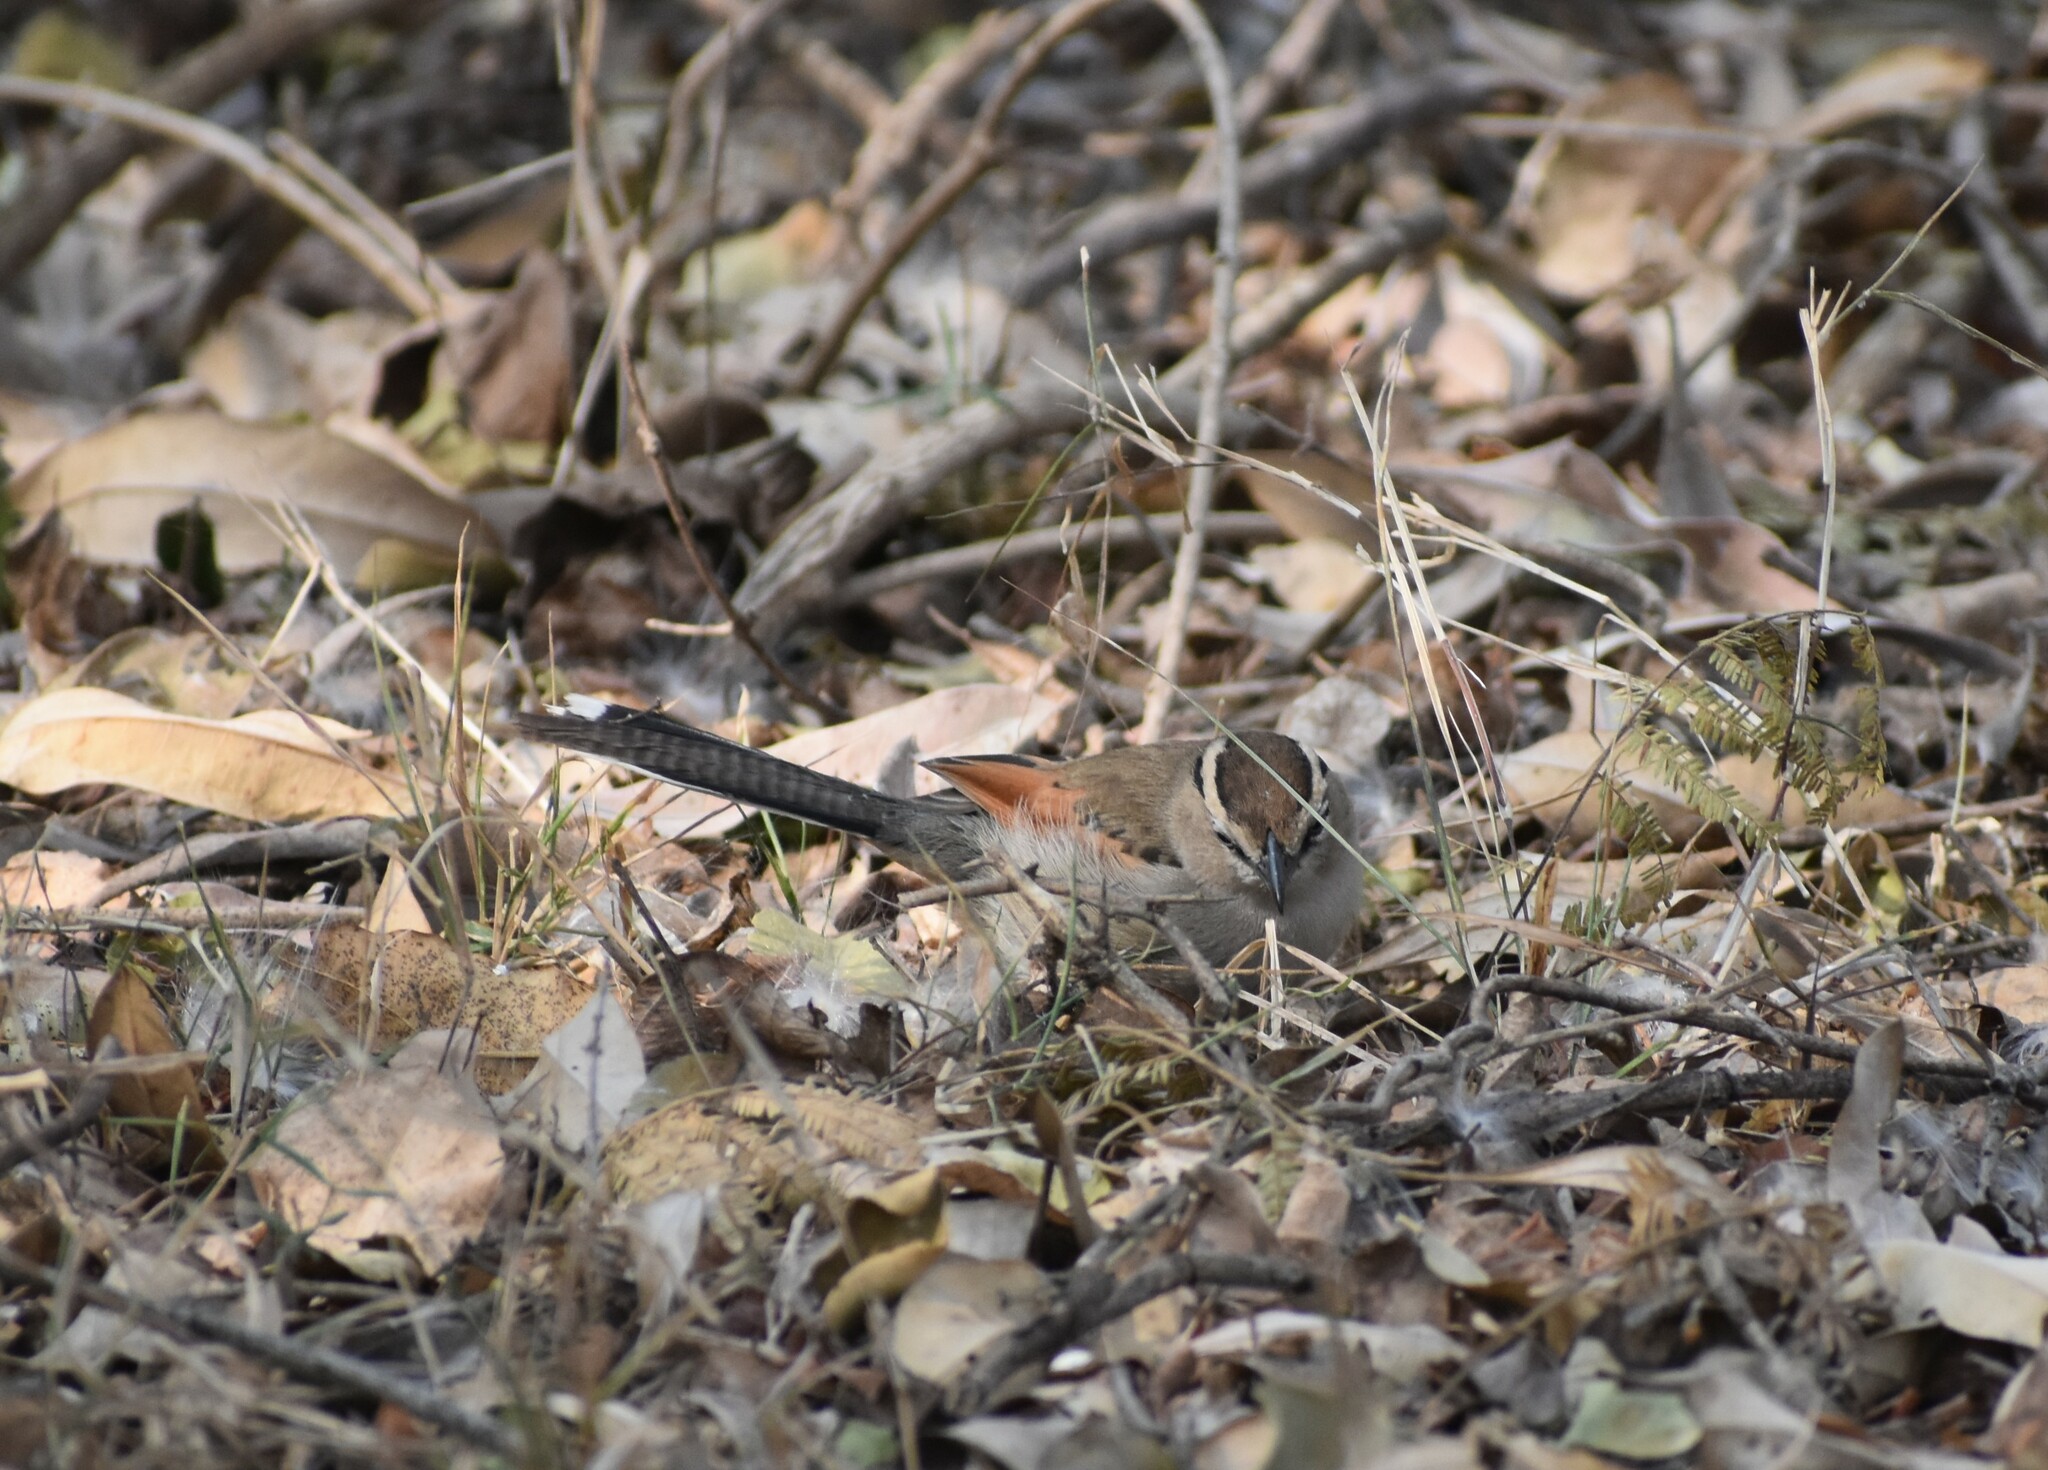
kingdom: Animalia
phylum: Chordata
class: Aves
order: Passeriformes
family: Malaconotidae
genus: Tchagra
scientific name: Tchagra australis
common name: Brown-crowned tchagra
